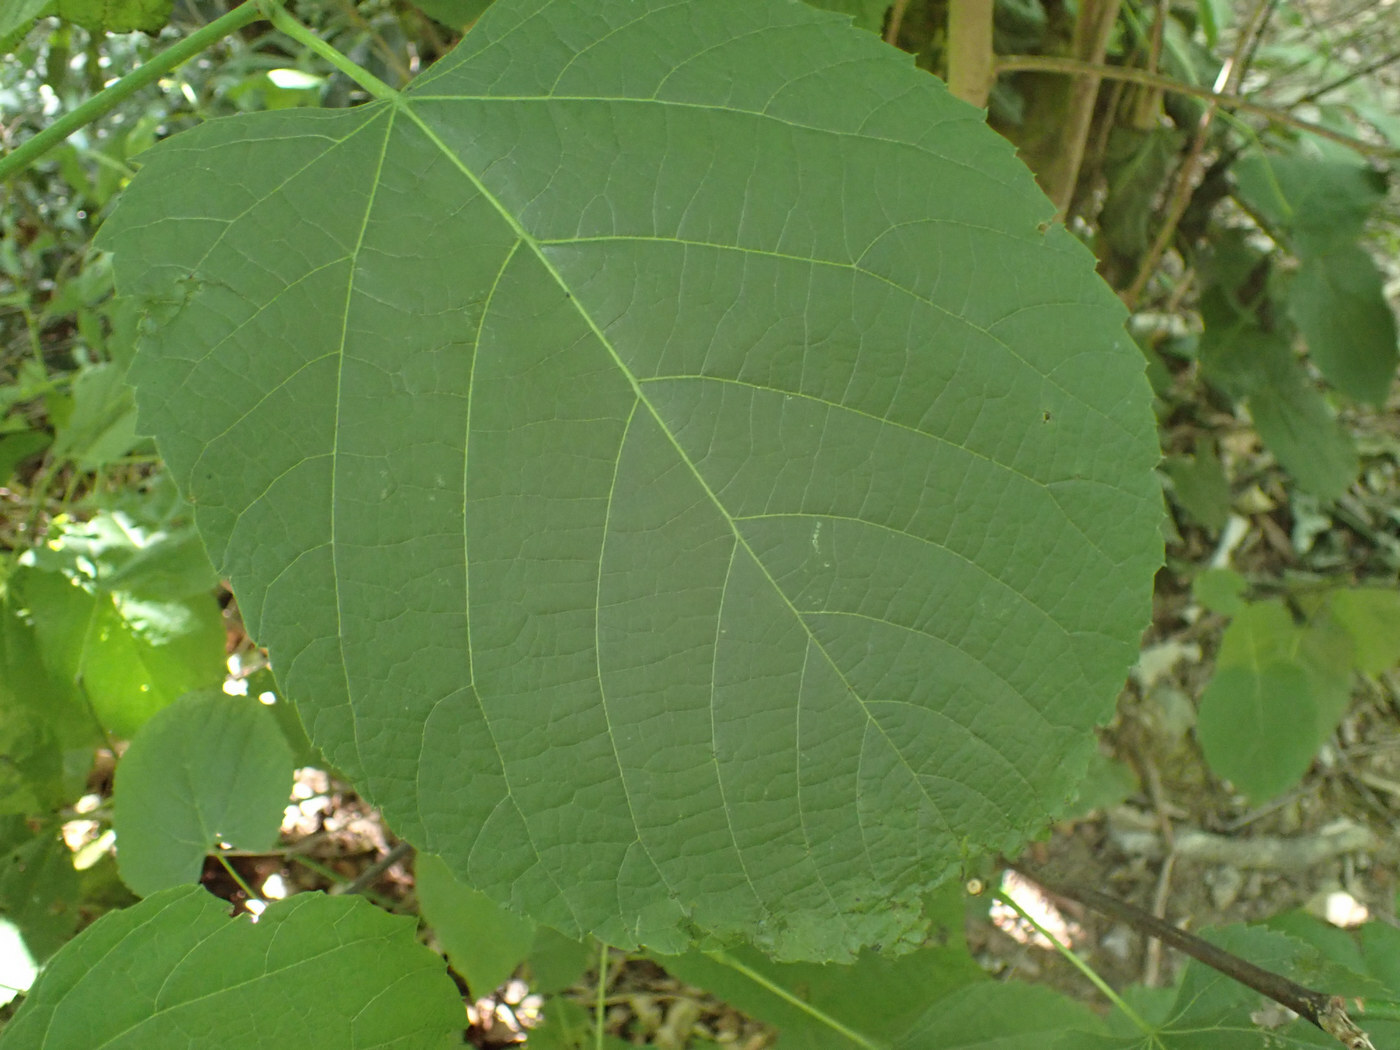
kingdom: Animalia
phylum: Arthropoda
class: Arachnida
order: Trombidiformes
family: Eriophyidae
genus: Eriophyes
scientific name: Eriophyes tiliae
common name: Red nail gall mite
